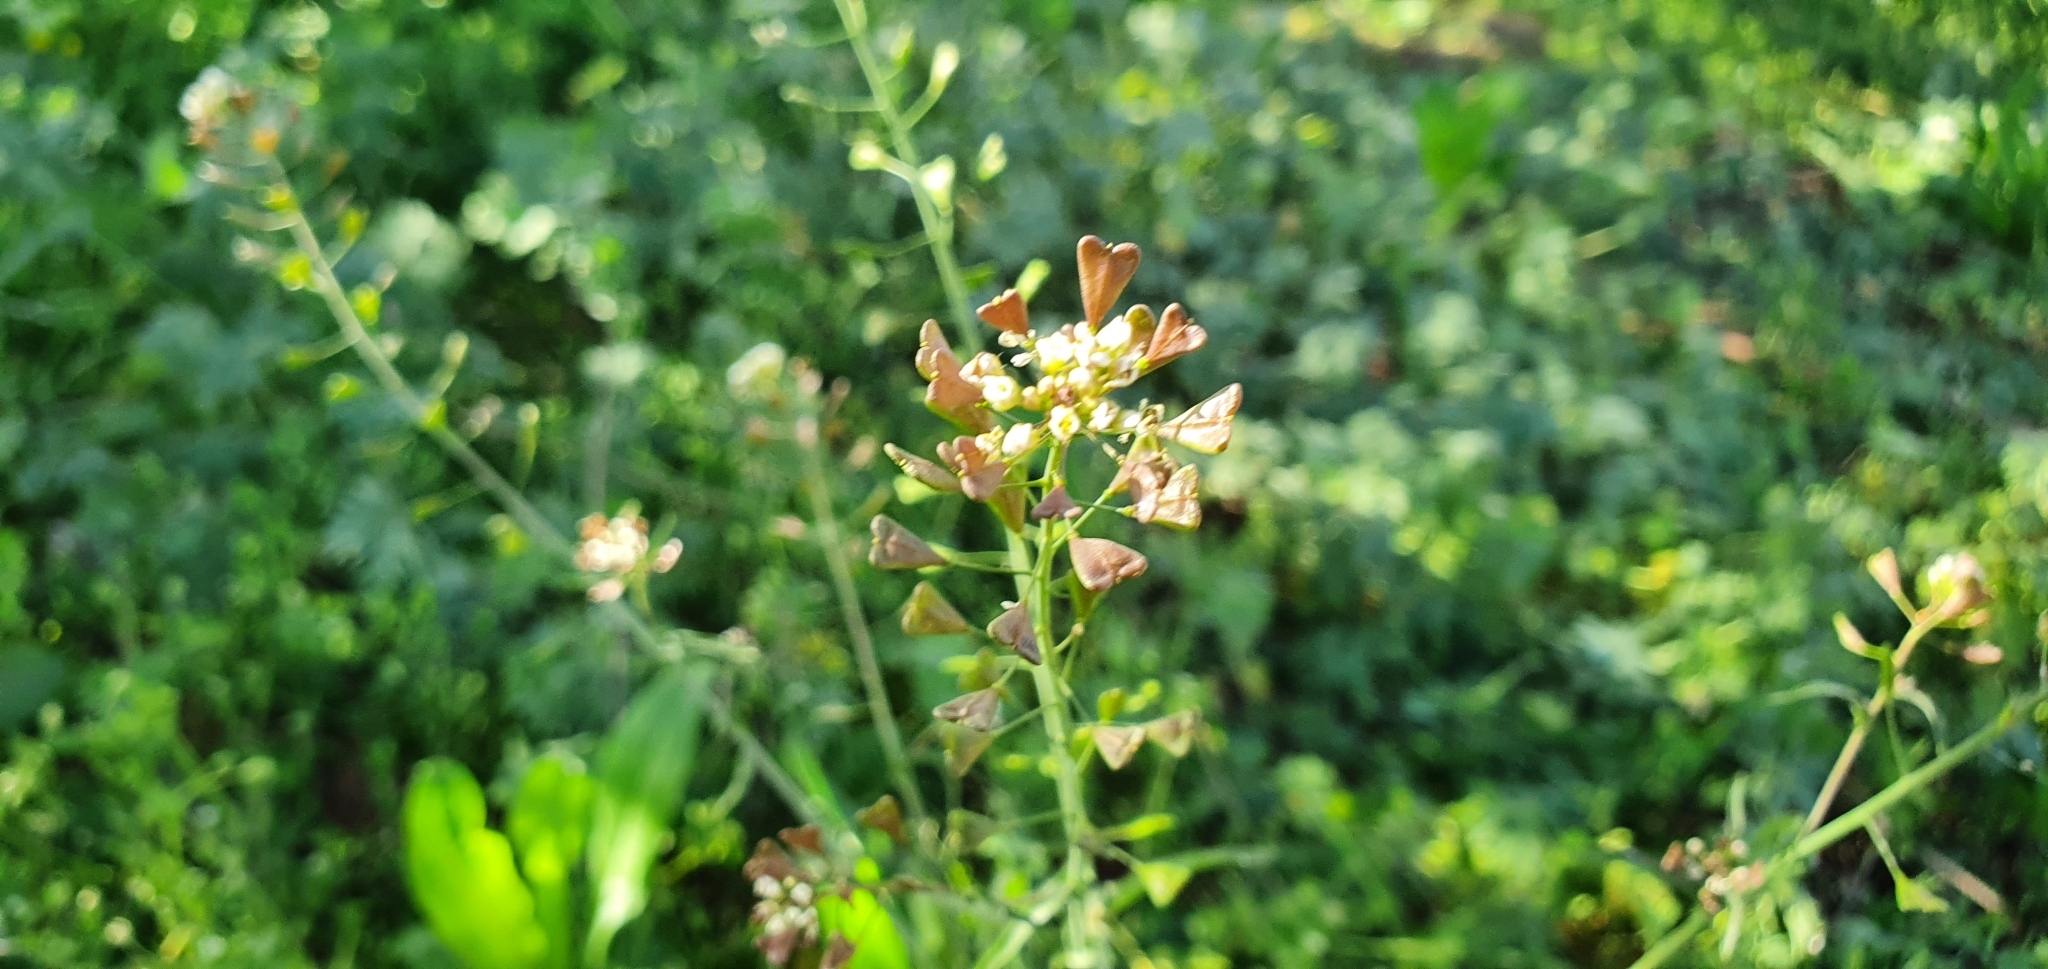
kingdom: Plantae
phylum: Tracheophyta
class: Magnoliopsida
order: Brassicales
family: Brassicaceae
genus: Capsella
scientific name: Capsella bursa-pastoris
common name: Shepherd's purse
